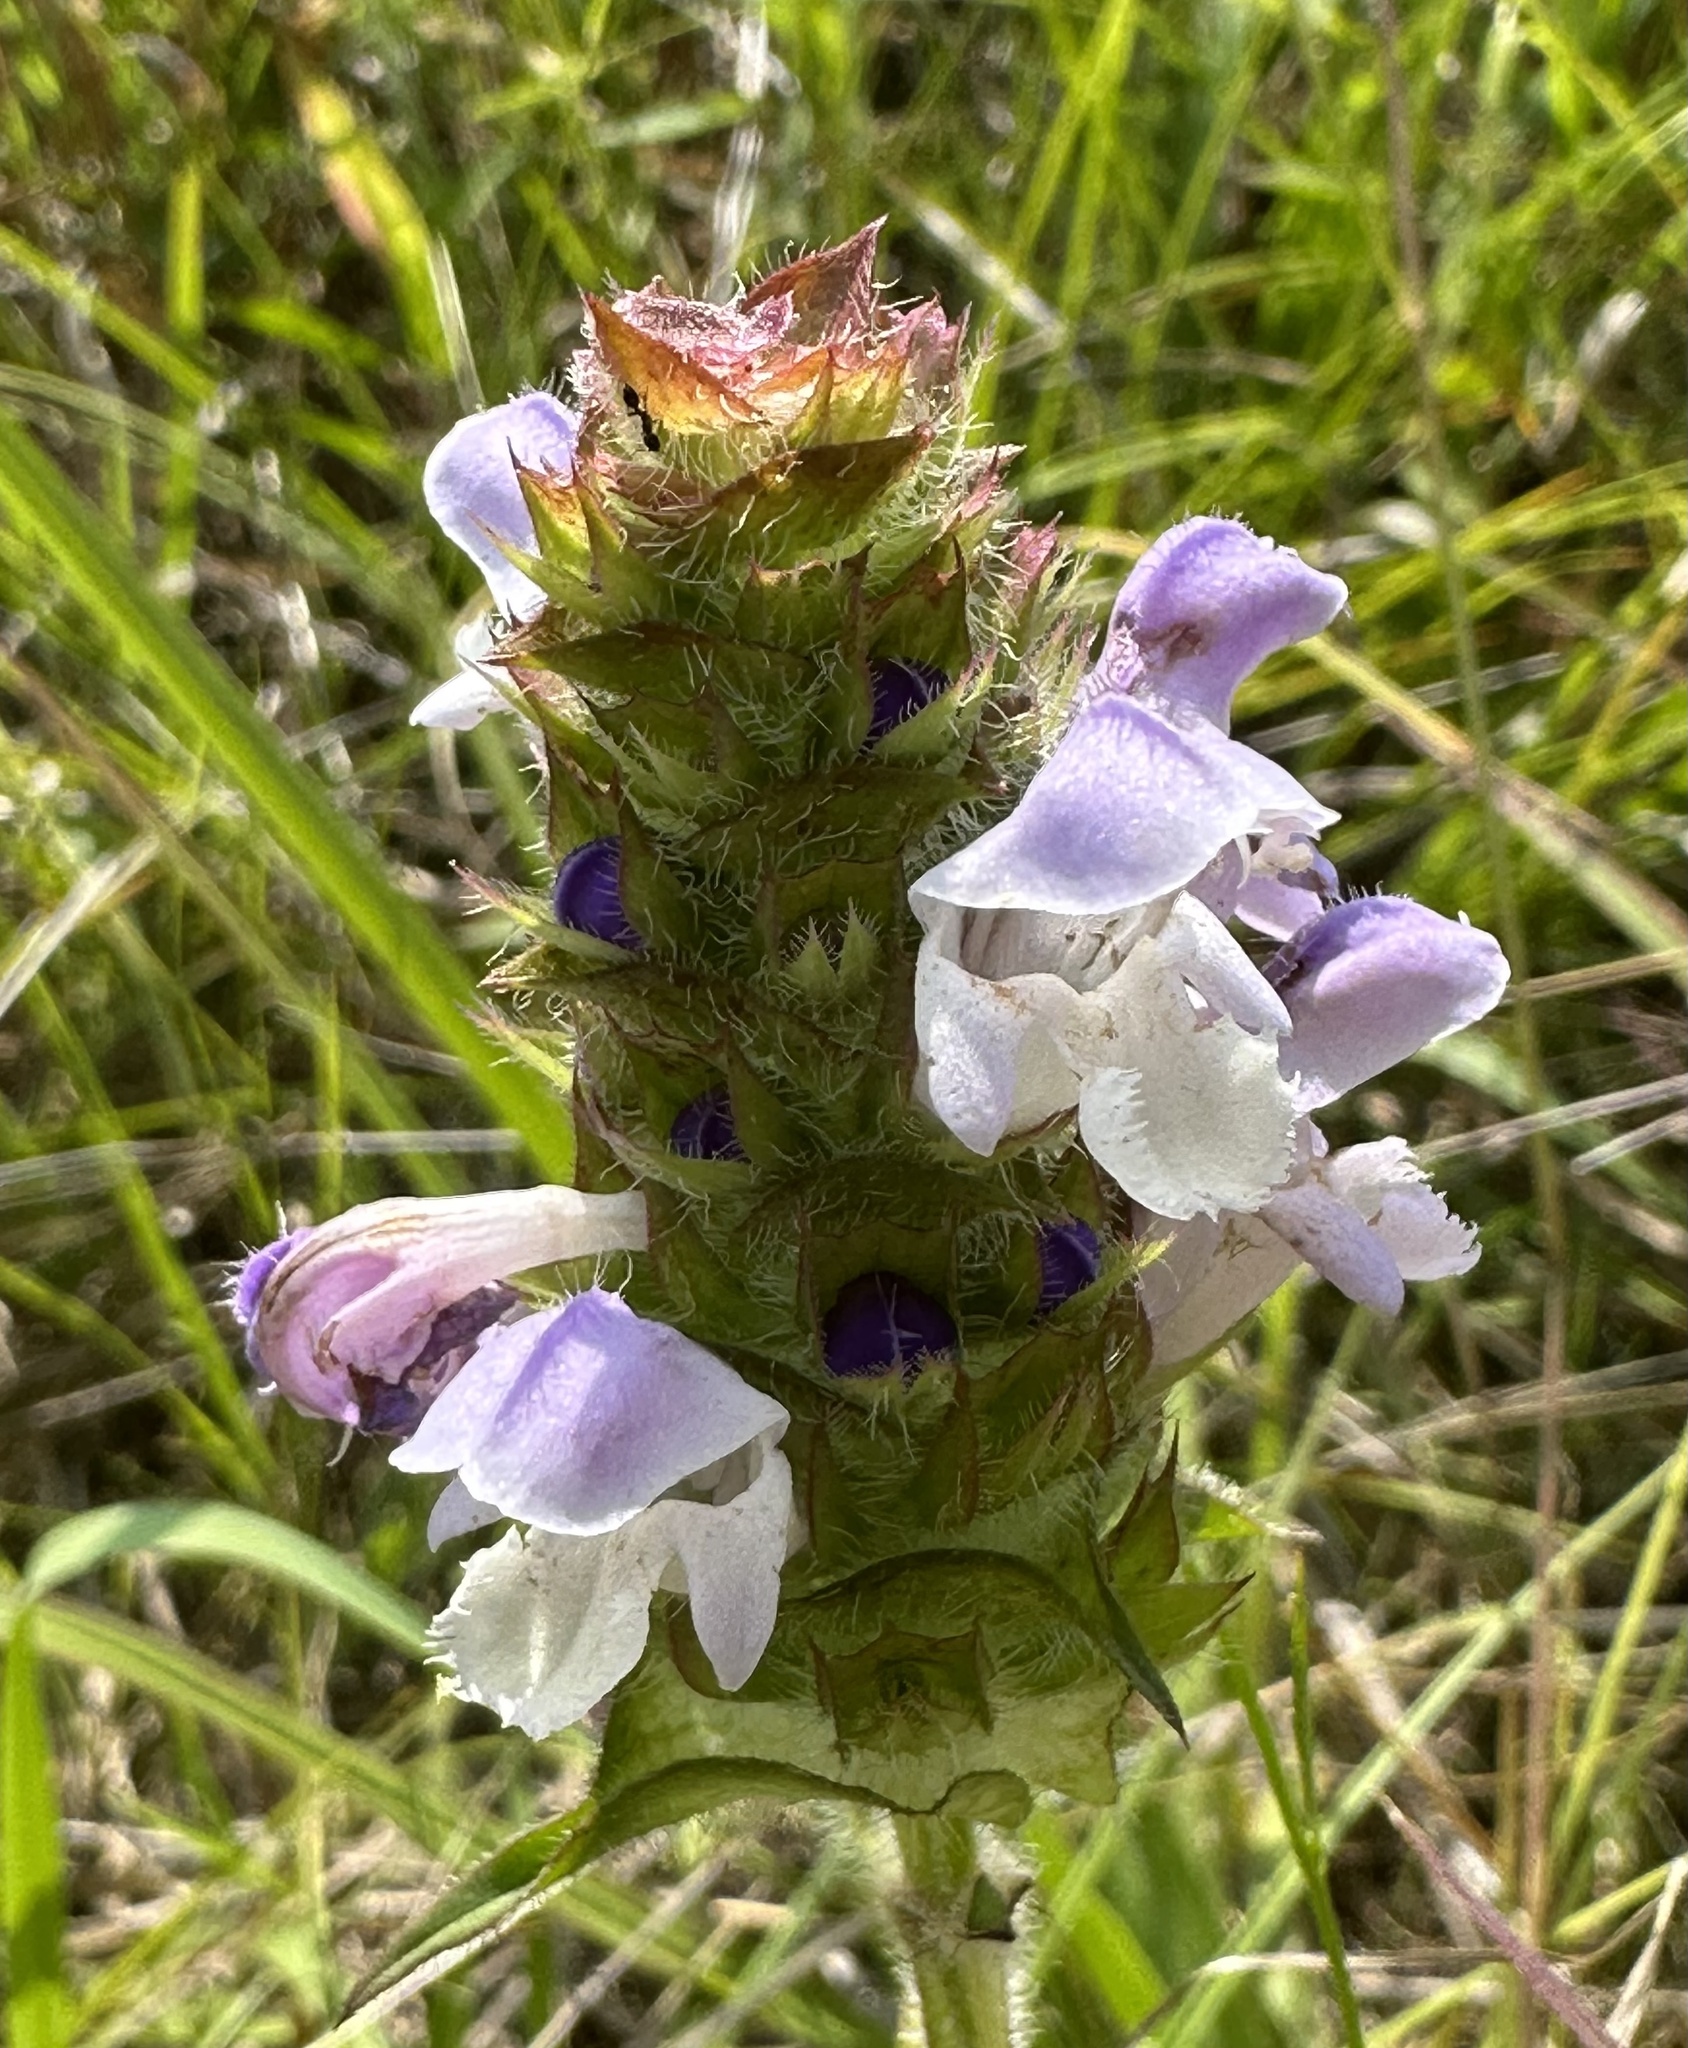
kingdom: Plantae
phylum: Tracheophyta
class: Magnoliopsida
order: Lamiales
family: Lamiaceae
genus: Prunella
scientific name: Prunella vulgaris
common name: Heal-all
